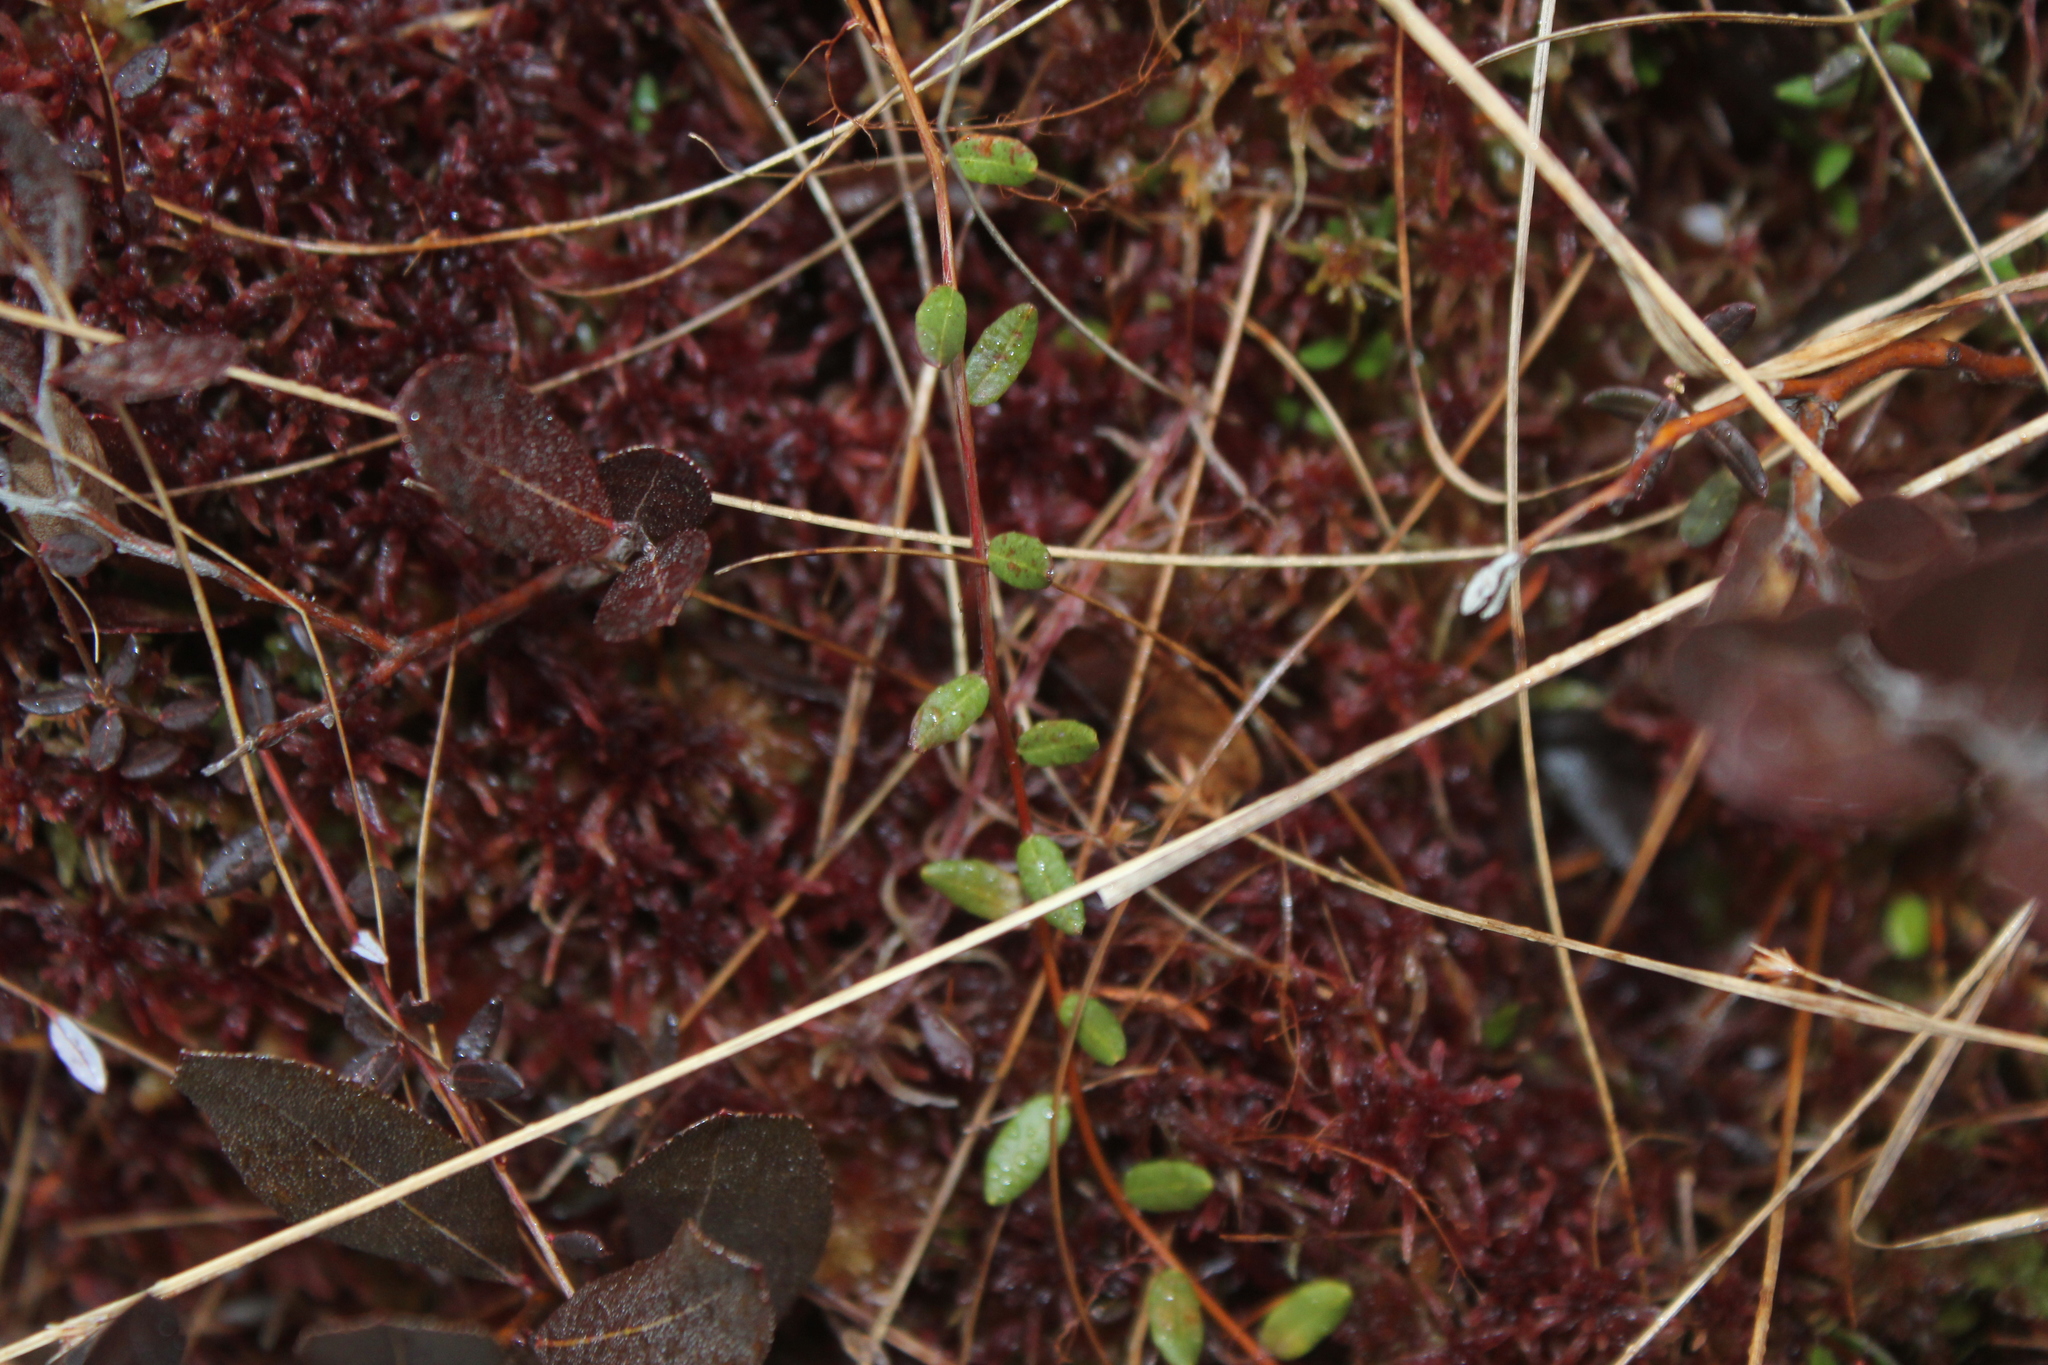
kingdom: Plantae
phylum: Tracheophyta
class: Magnoliopsida
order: Ericales
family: Ericaceae
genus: Vaccinium
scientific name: Vaccinium oxycoccos
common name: Cranberry
